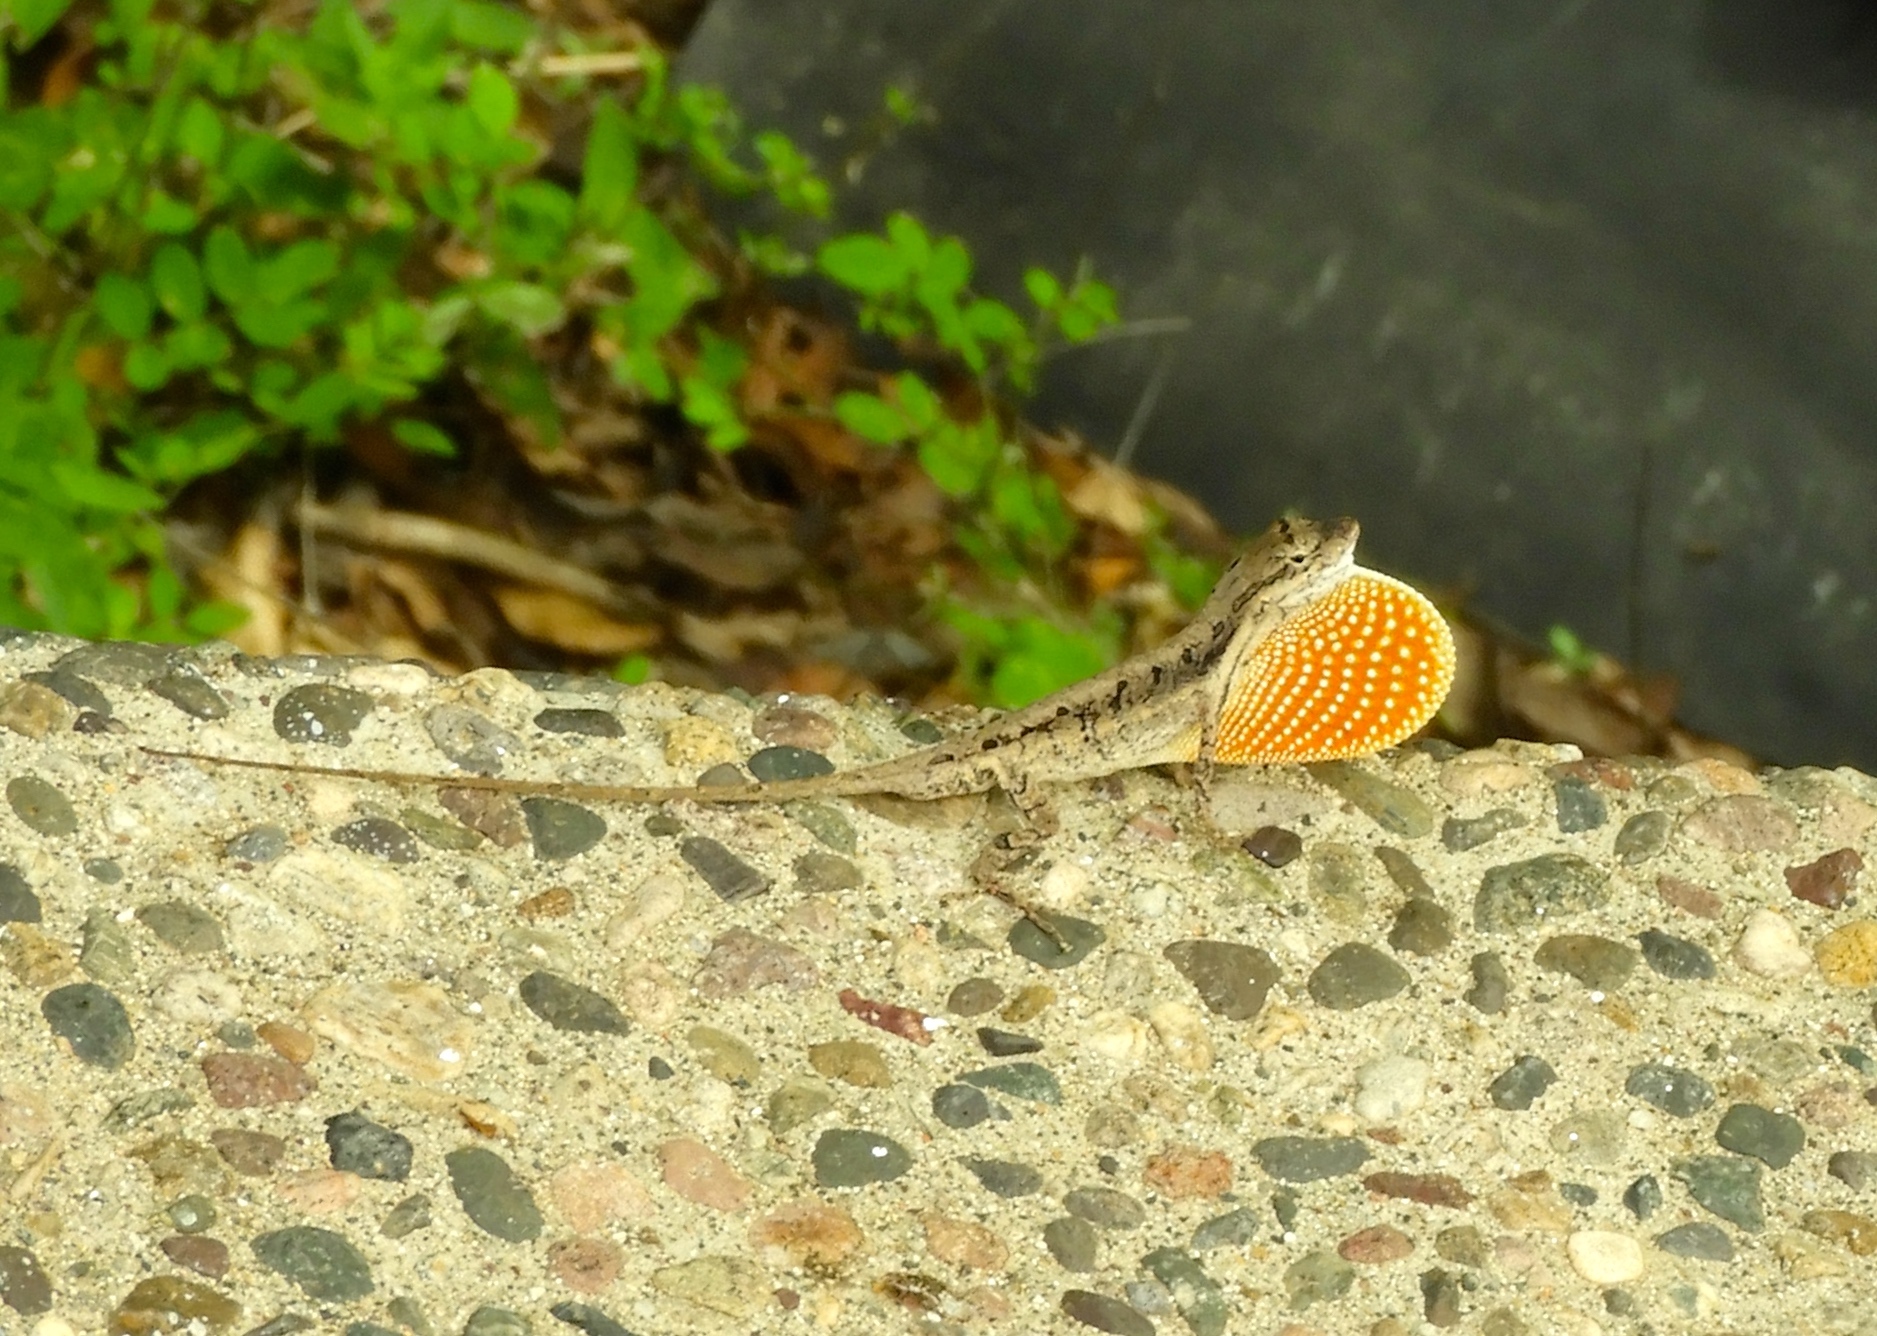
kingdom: Animalia
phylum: Chordata
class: Squamata
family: Dactyloidae
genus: Anolis
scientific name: Anolis nebulosus
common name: Clouded anole
